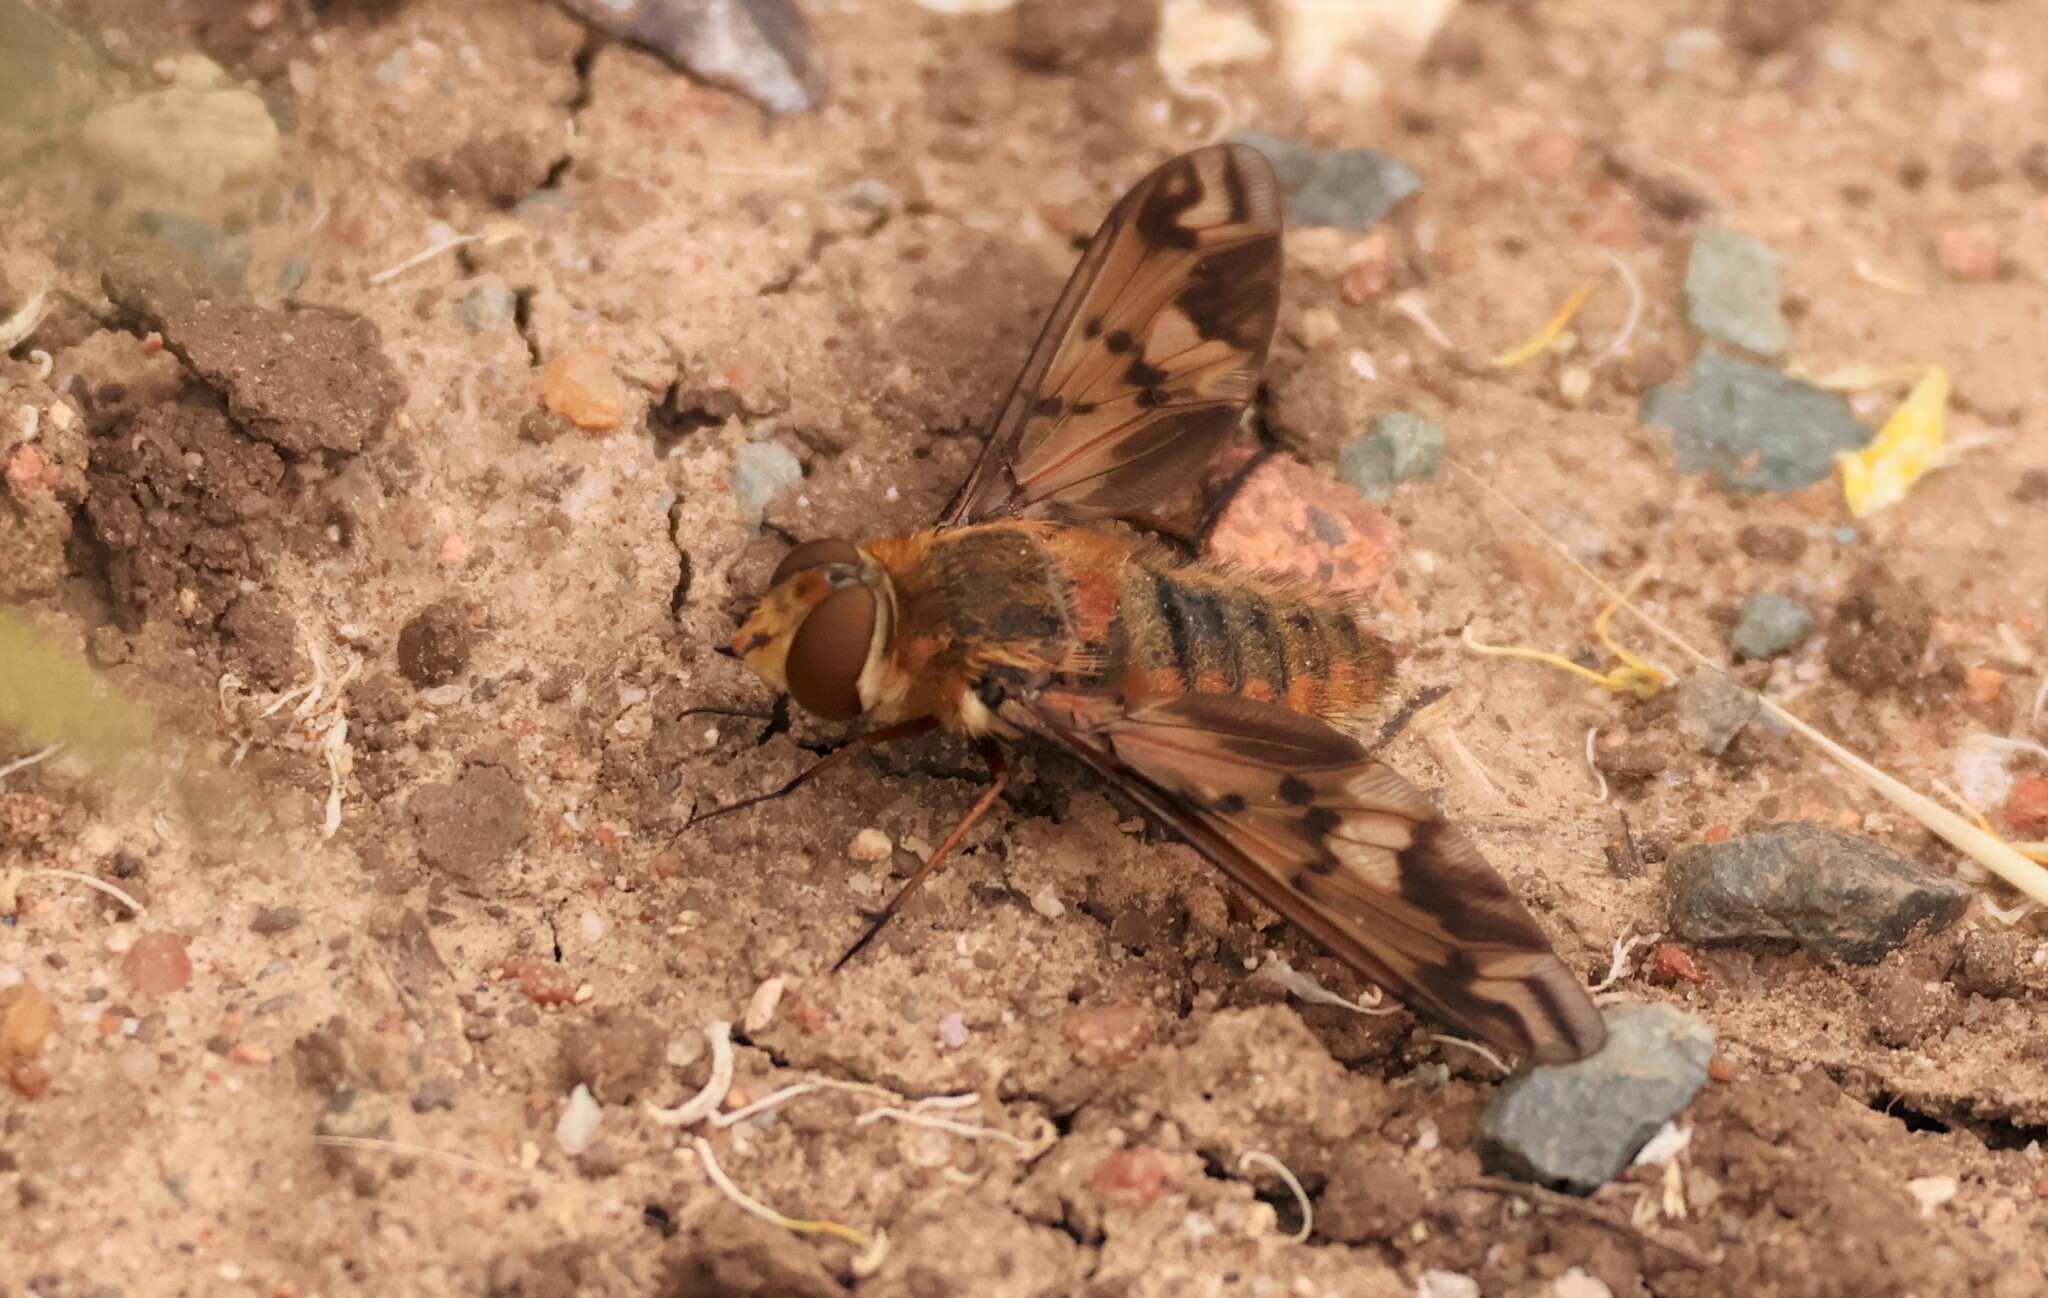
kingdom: Animalia
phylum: Arthropoda
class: Insecta
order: Diptera
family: Bombyliidae
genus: Poecilanthrax
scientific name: Poecilanthrax arethusa
